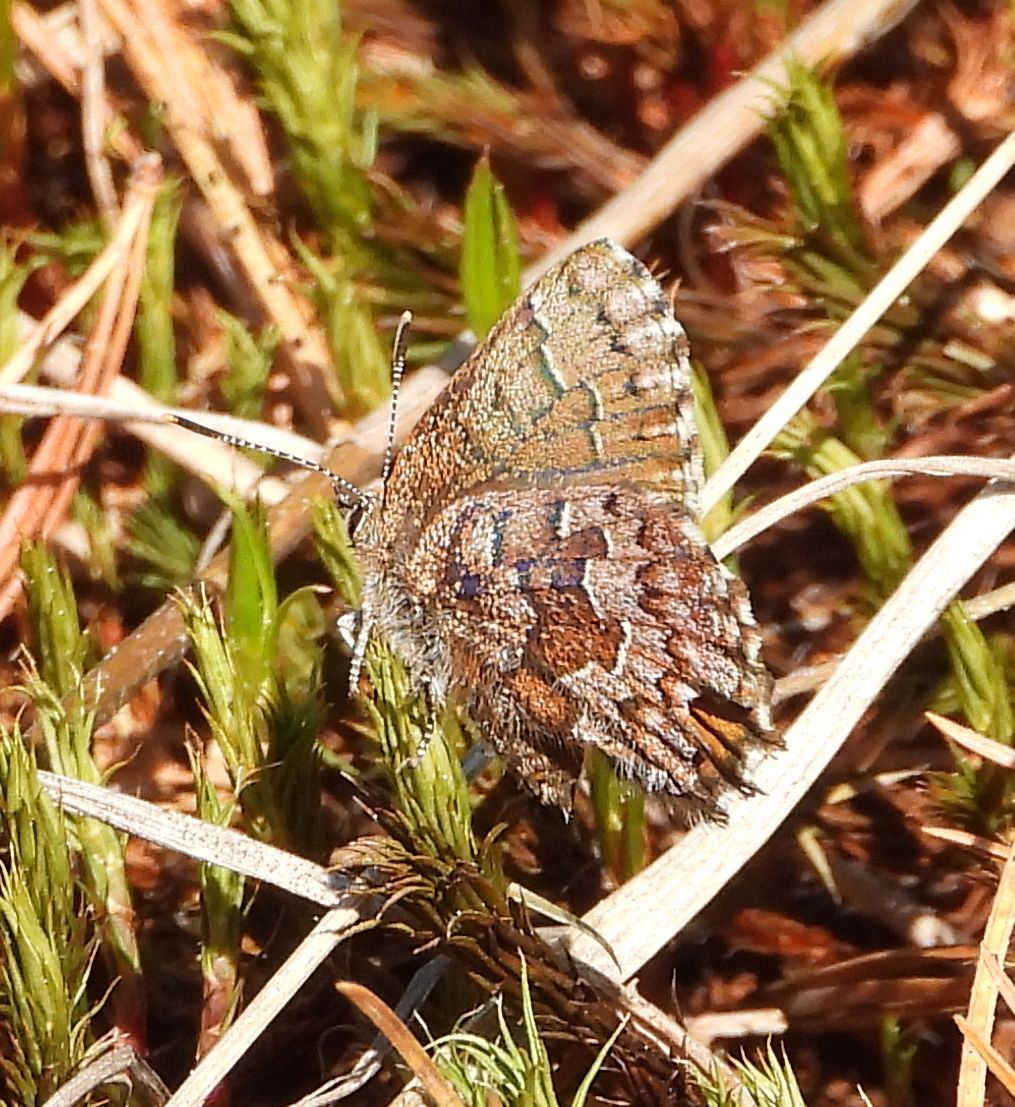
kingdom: Animalia
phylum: Arthropoda
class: Insecta
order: Lepidoptera
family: Lycaenidae
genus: Incisalia
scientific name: Incisalia niphon
